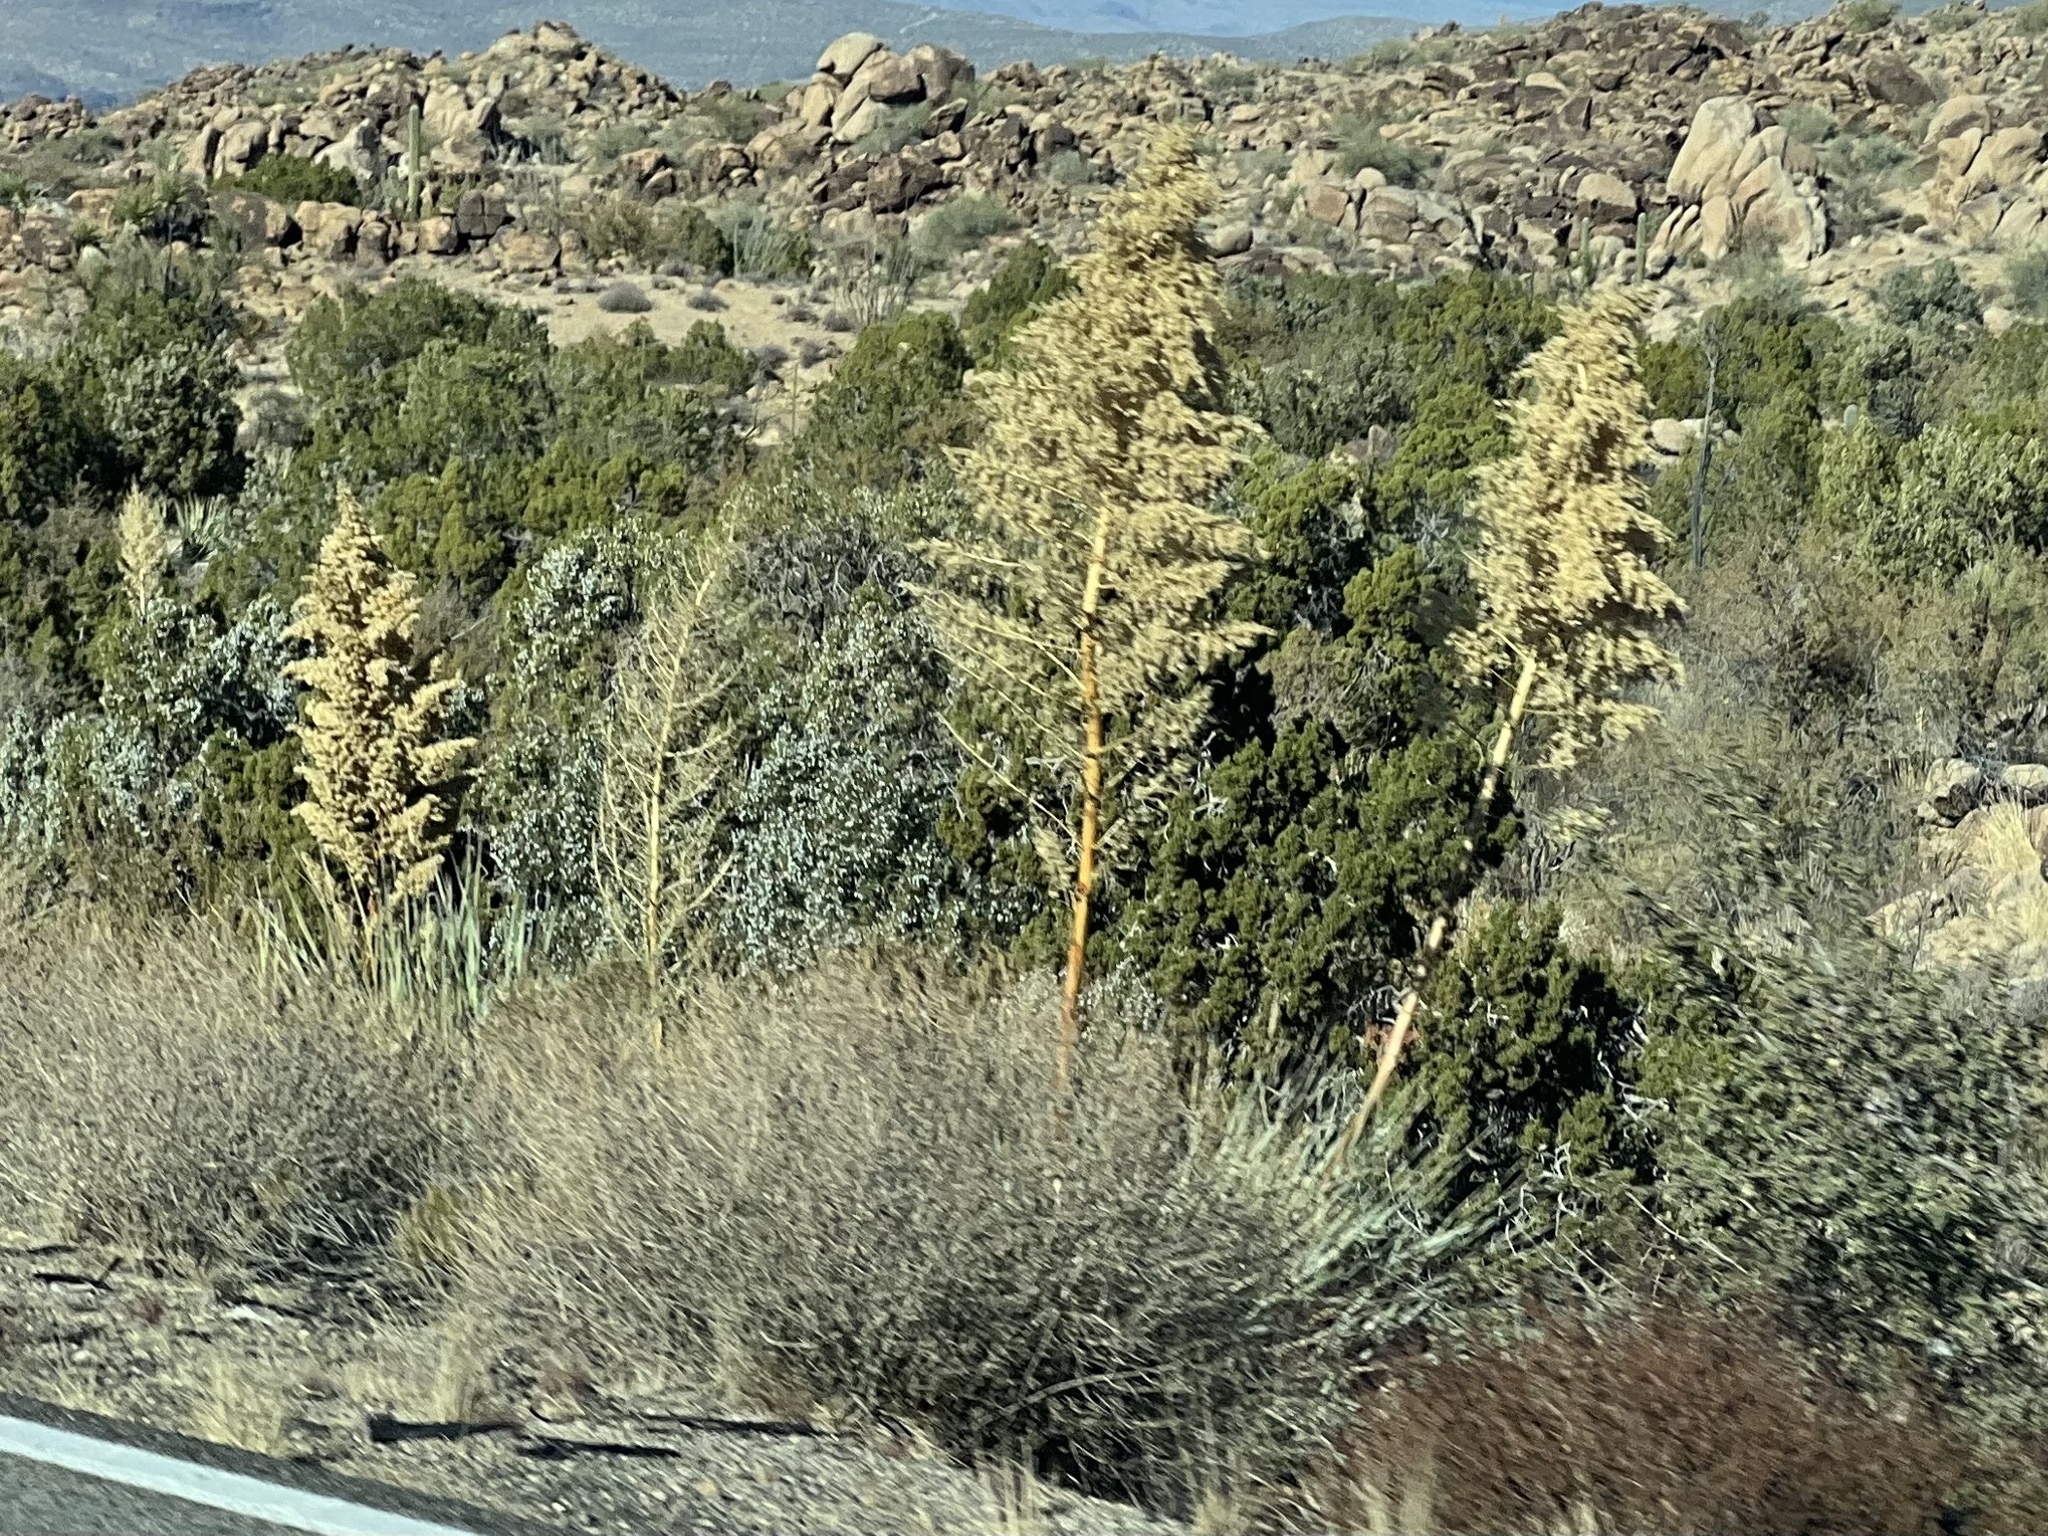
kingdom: Plantae
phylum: Tracheophyta
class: Liliopsida
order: Asparagales
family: Asparagaceae
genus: Nolina
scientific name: Nolina bigelovii
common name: Bigelow bear-grass
